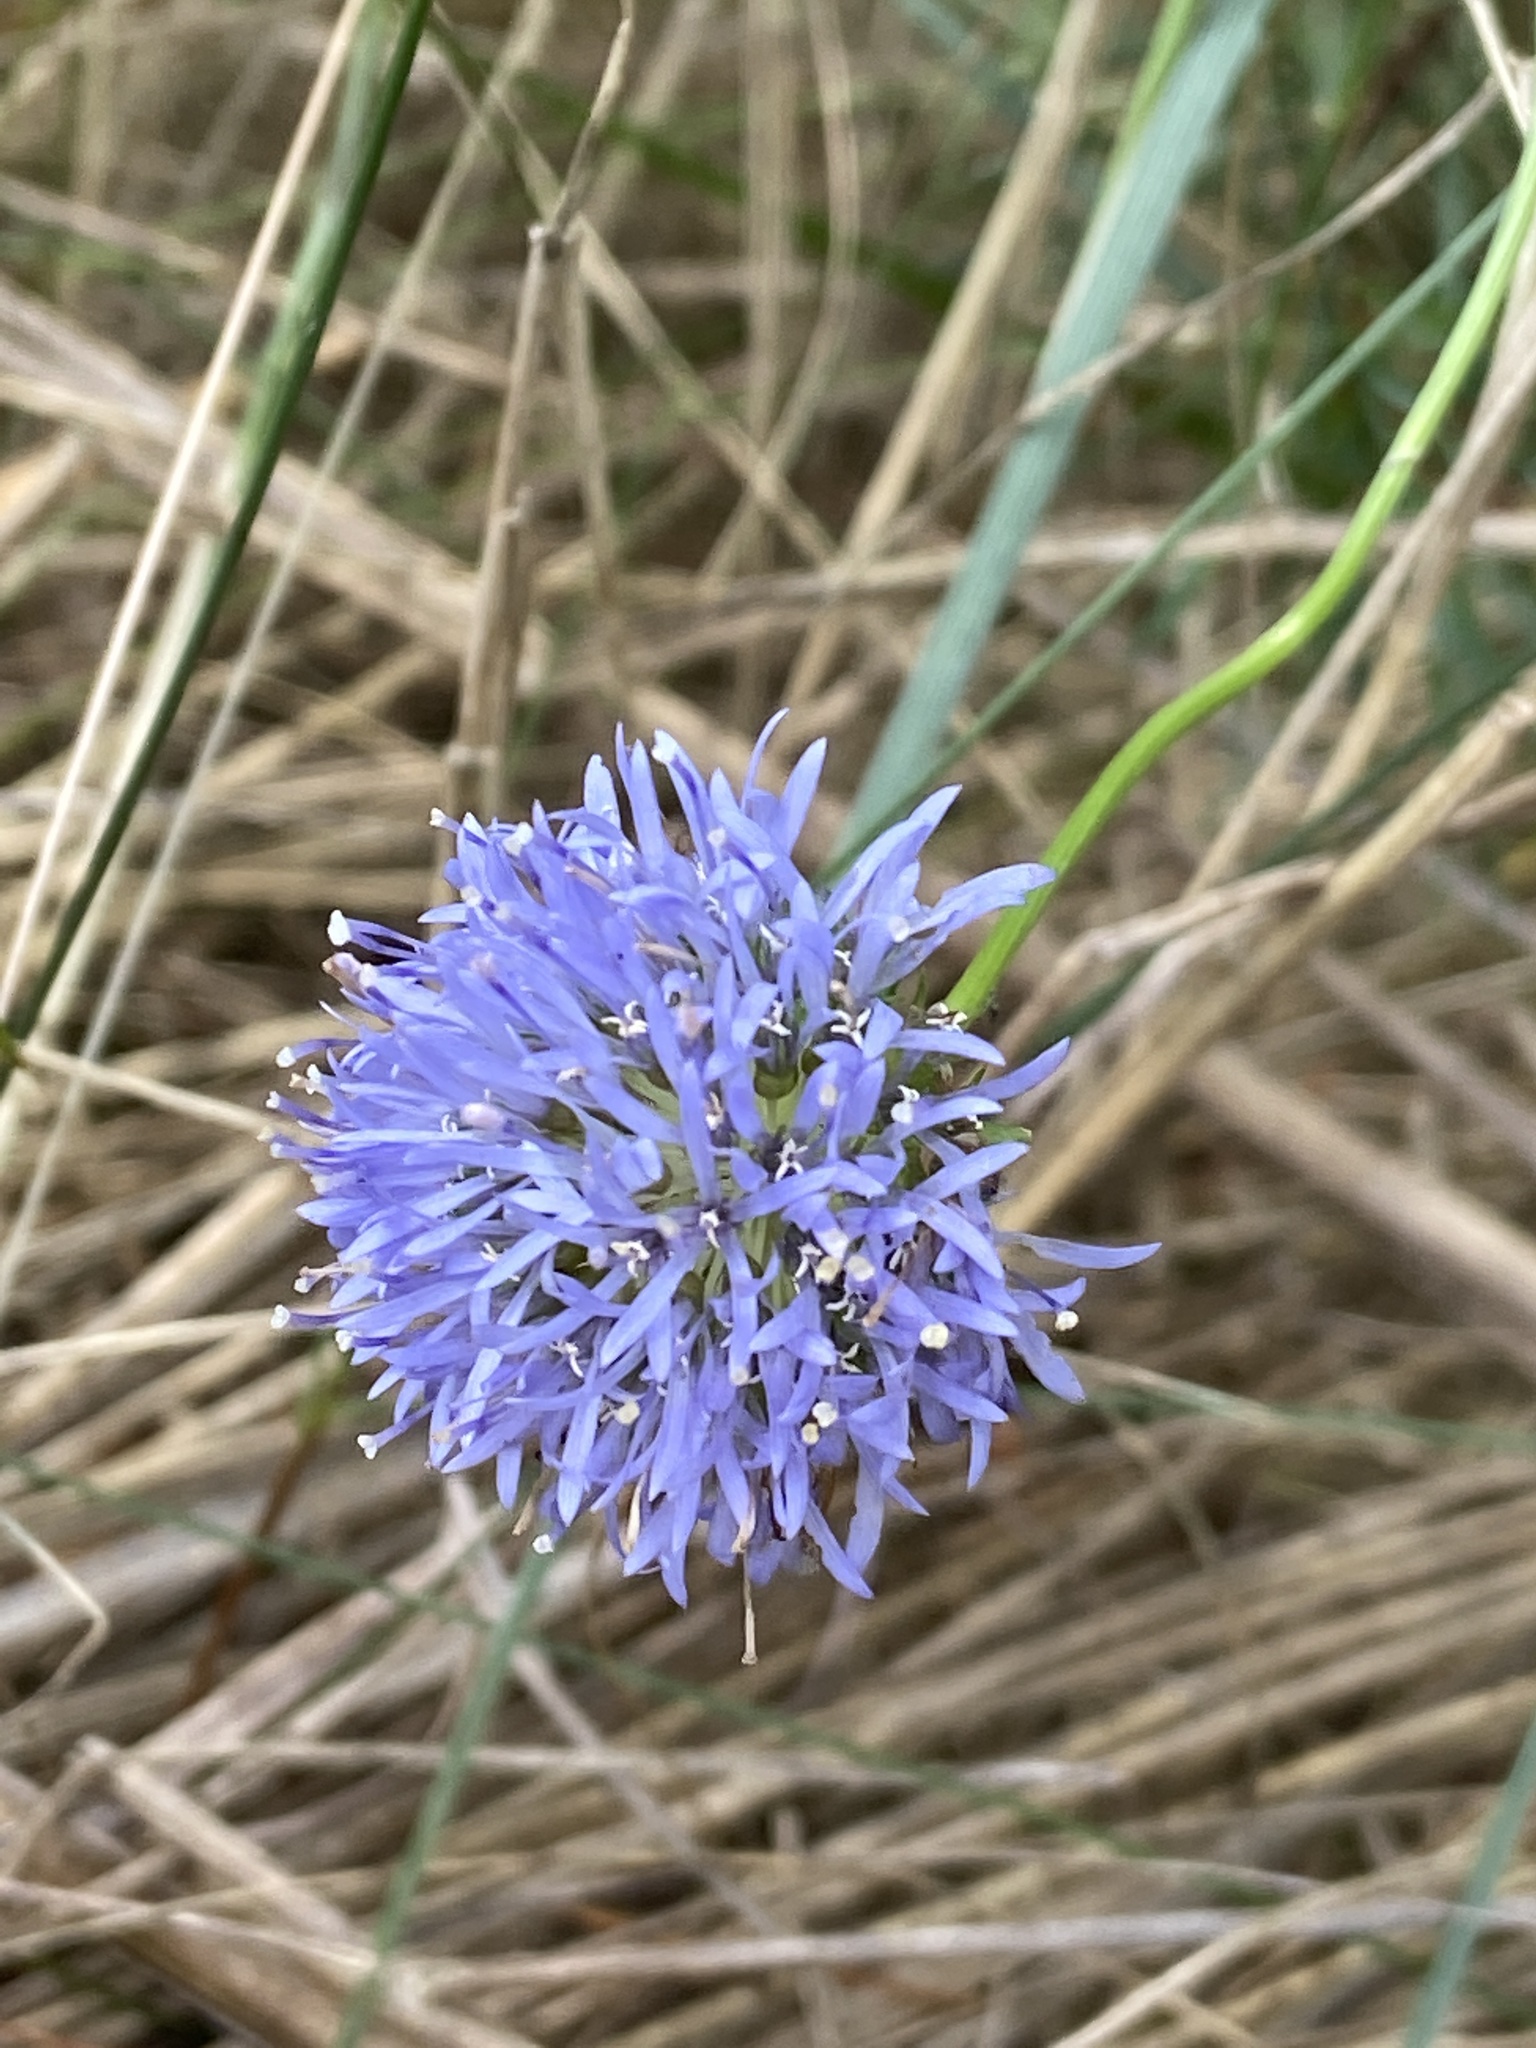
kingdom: Plantae
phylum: Tracheophyta
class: Magnoliopsida
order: Asterales
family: Campanulaceae
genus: Jasione
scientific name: Jasione montana
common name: Sheep's-bit
